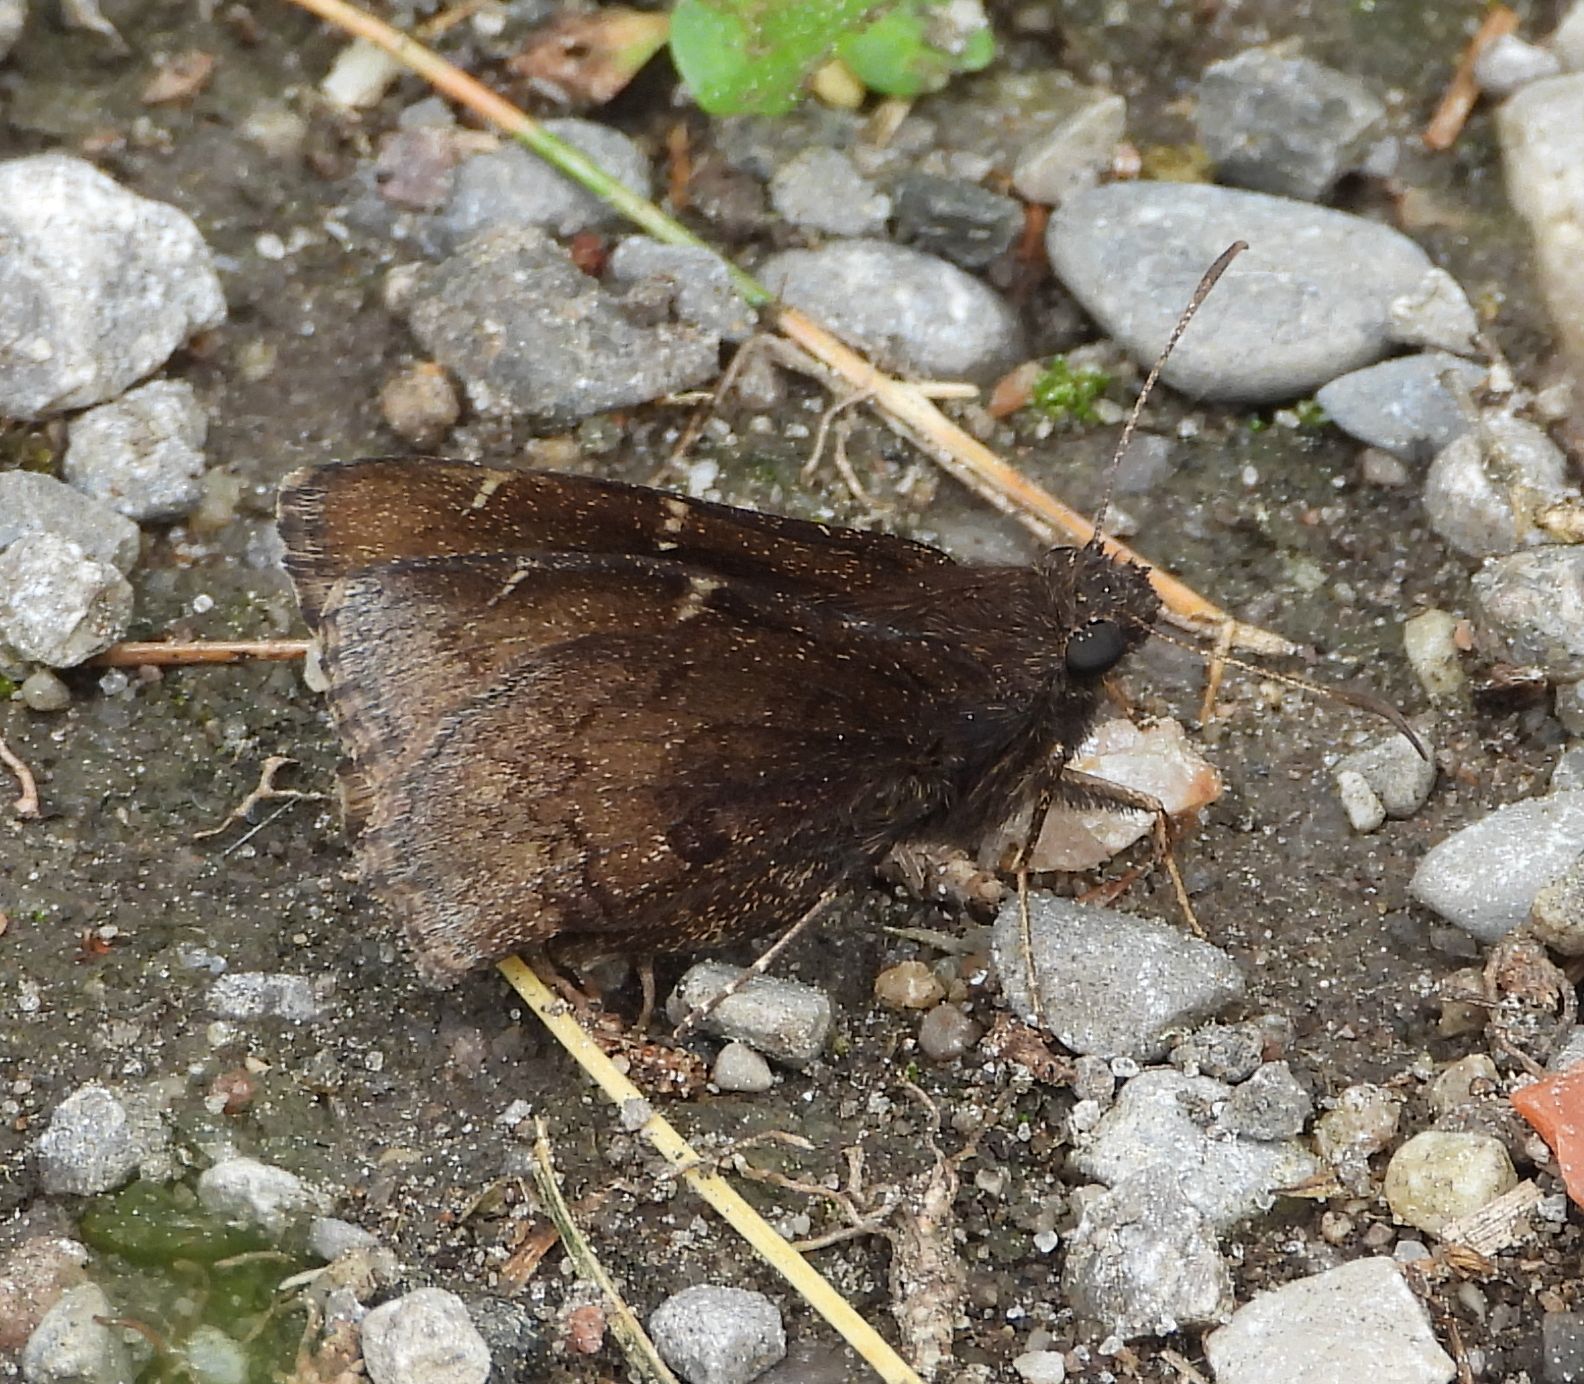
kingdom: Animalia
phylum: Arthropoda
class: Insecta
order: Lepidoptera
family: Hesperiidae
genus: Thorybes
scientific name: Thorybes pylades
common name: Northern cloudywing
